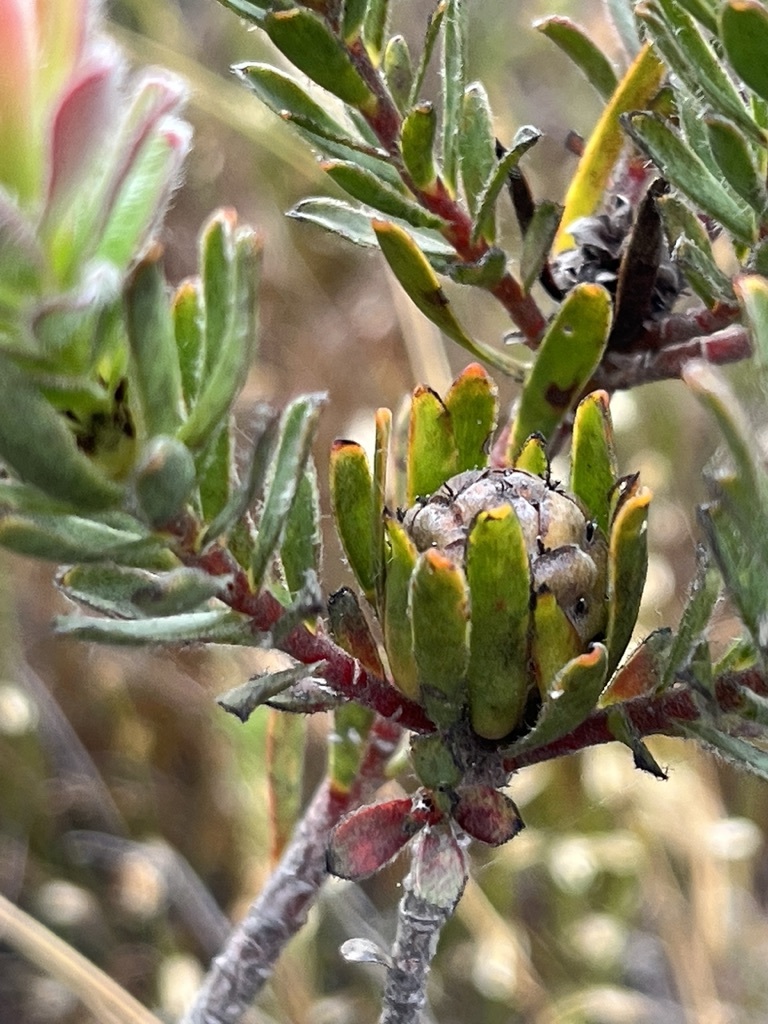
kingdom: Plantae
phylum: Tracheophyta
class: Magnoliopsida
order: Proteales
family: Proteaceae
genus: Leucadendron
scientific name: Leucadendron stelligerum
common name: Agulhas conebush
